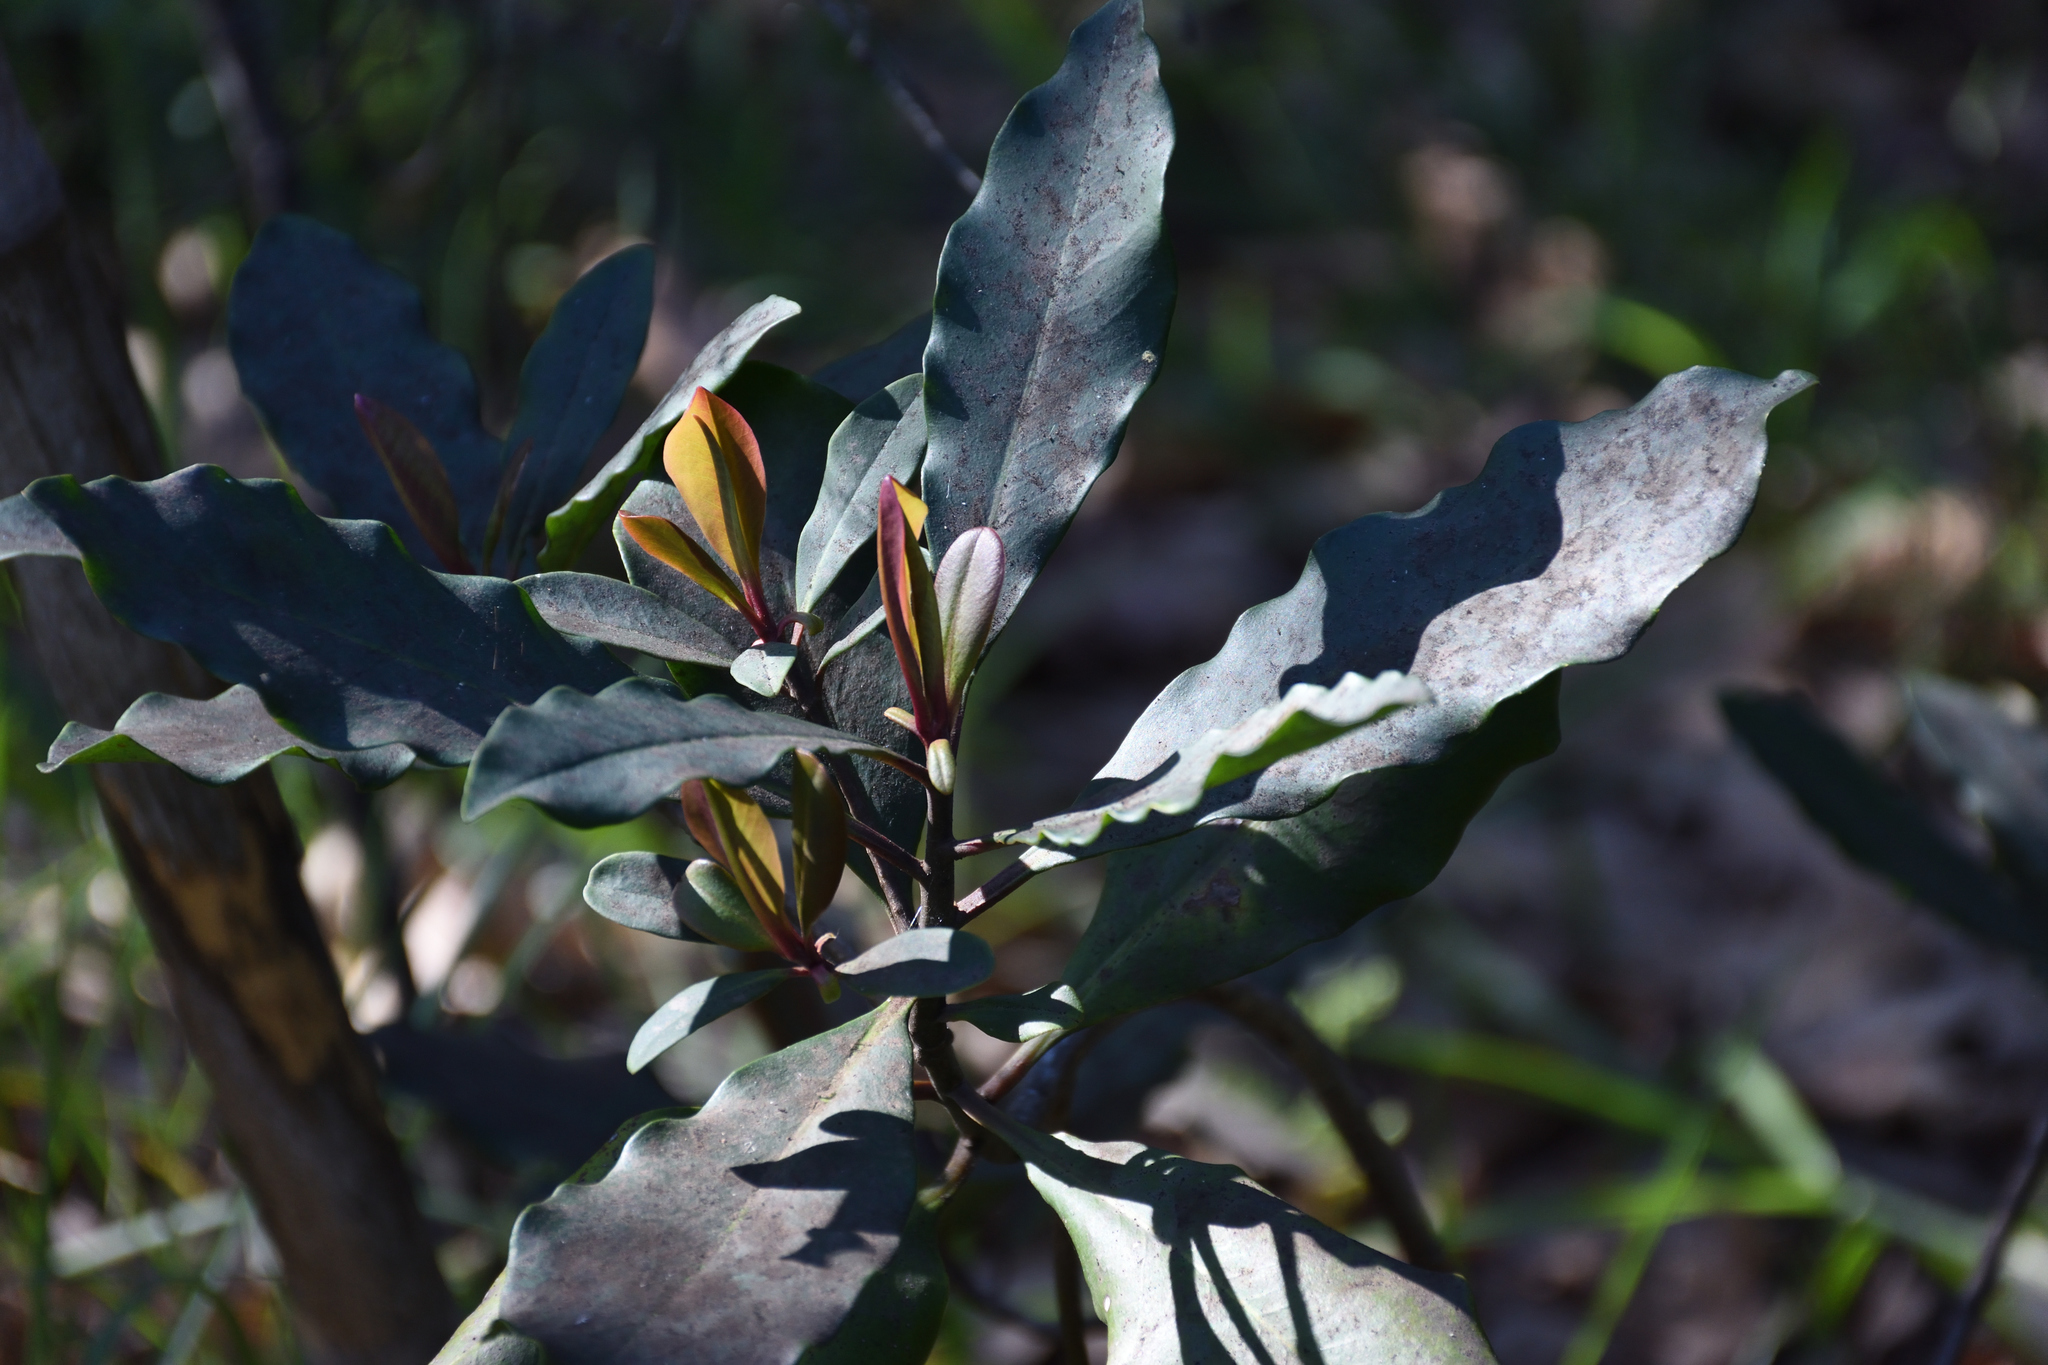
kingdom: Plantae
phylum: Tracheophyta
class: Magnoliopsida
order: Ericales
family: Primulaceae
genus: Myrsine
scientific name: Myrsine melanophloeos
